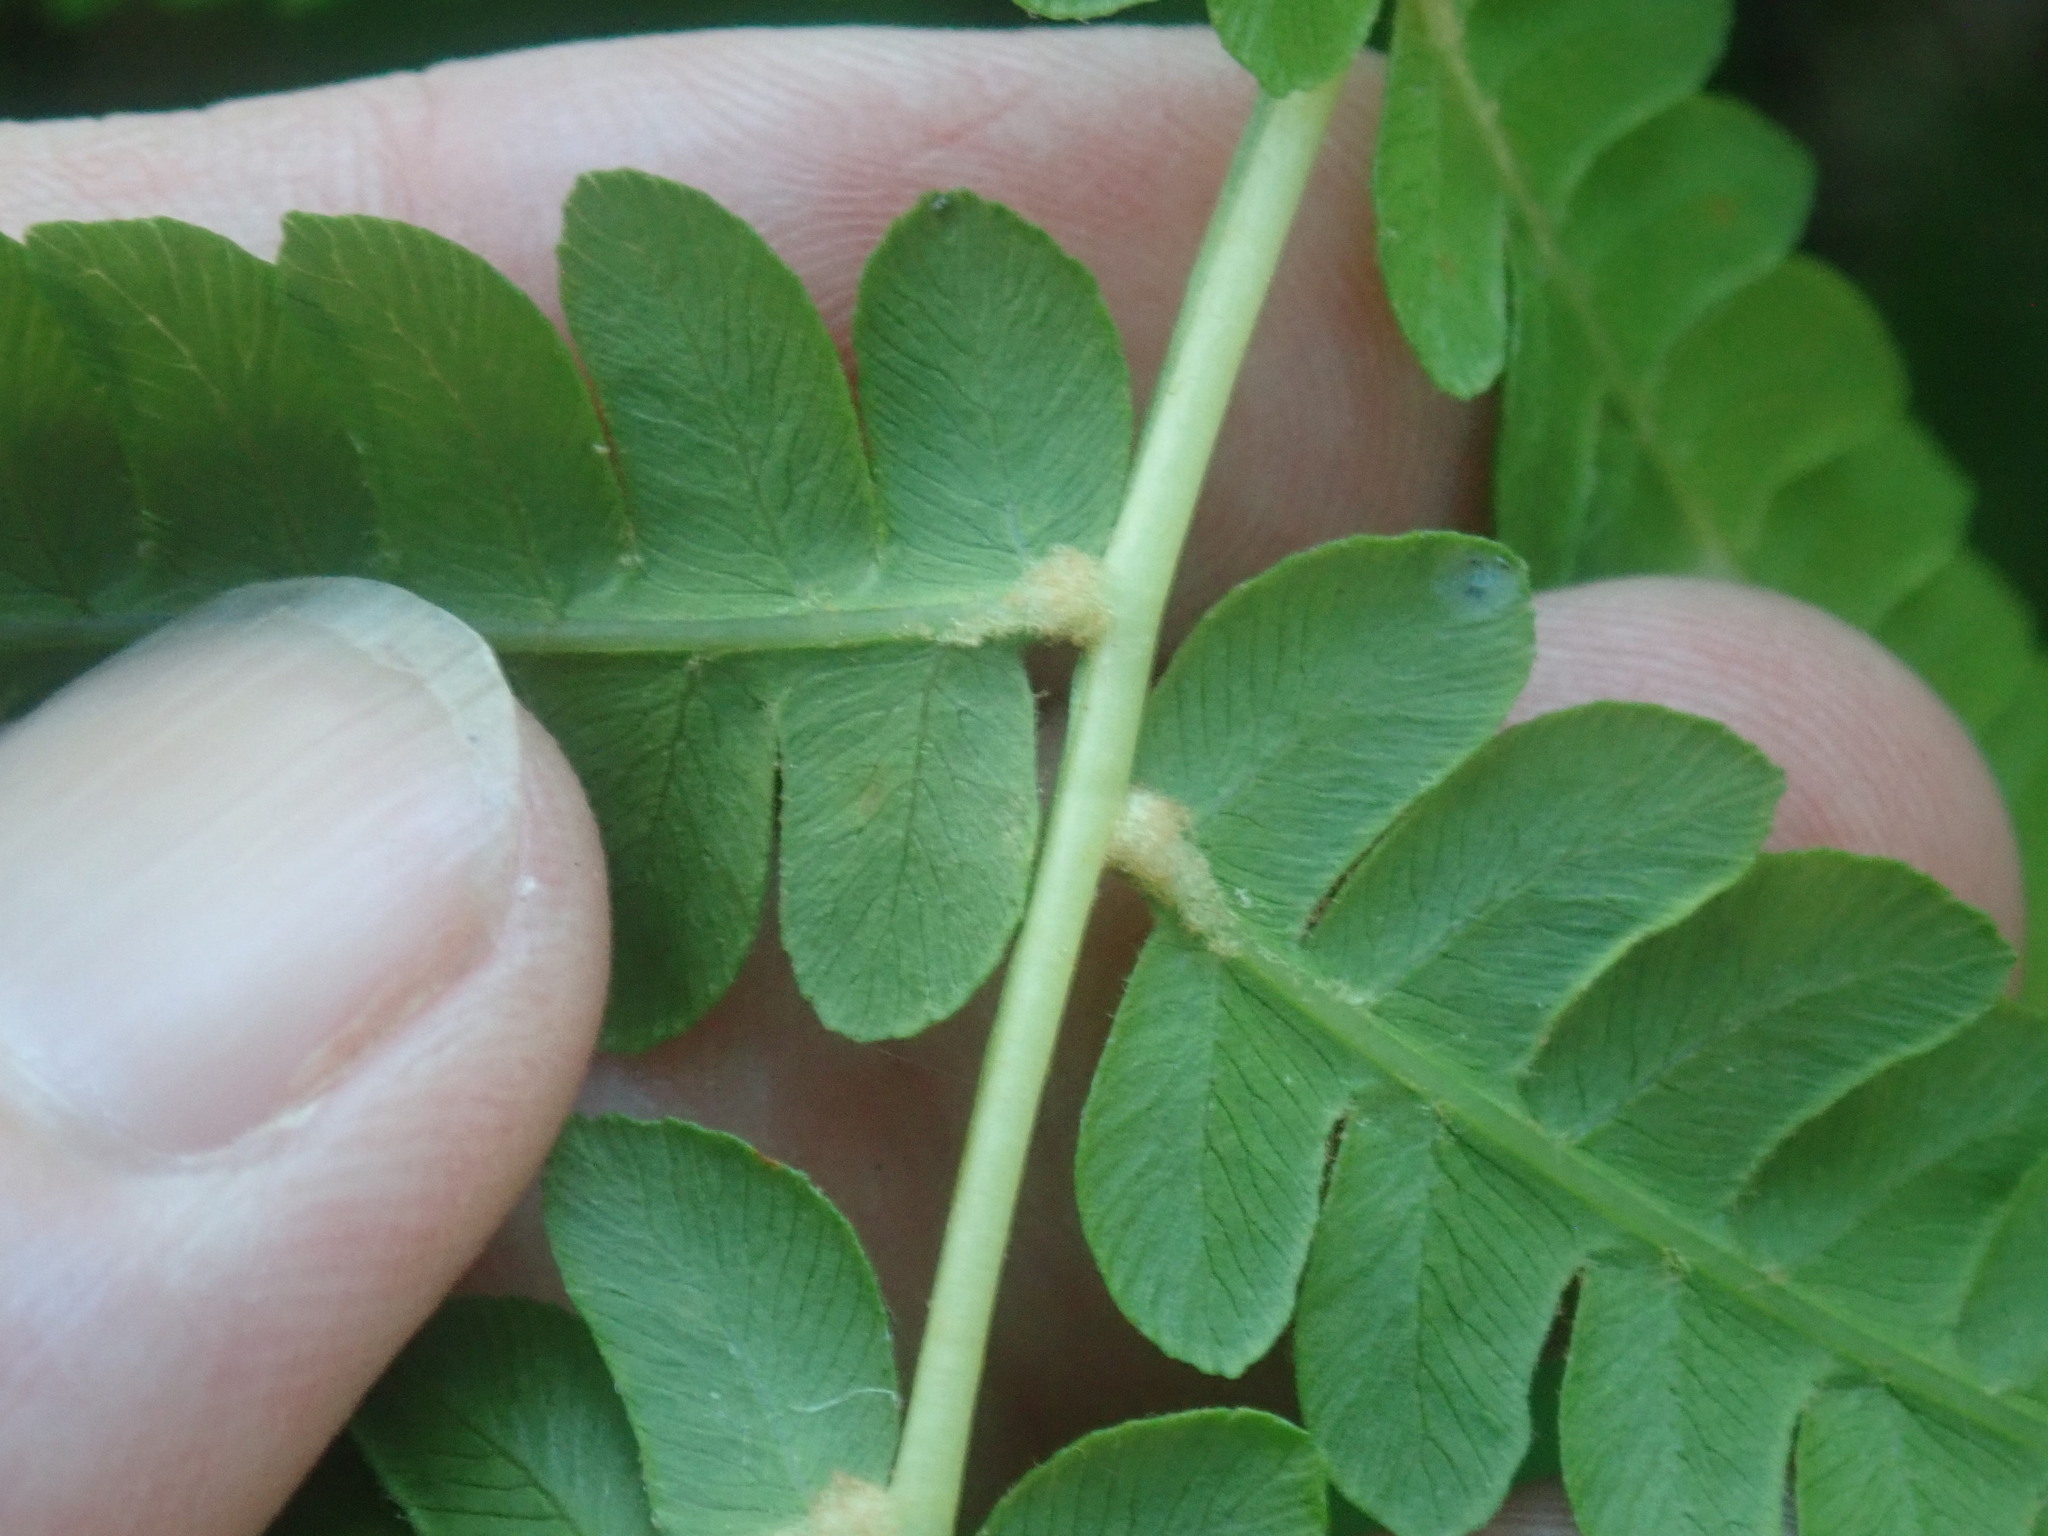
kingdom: Plantae
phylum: Tracheophyta
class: Polypodiopsida
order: Osmundales
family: Osmundaceae
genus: Osmundastrum
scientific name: Osmundastrum cinnamomeum
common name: Cinnamon fern
